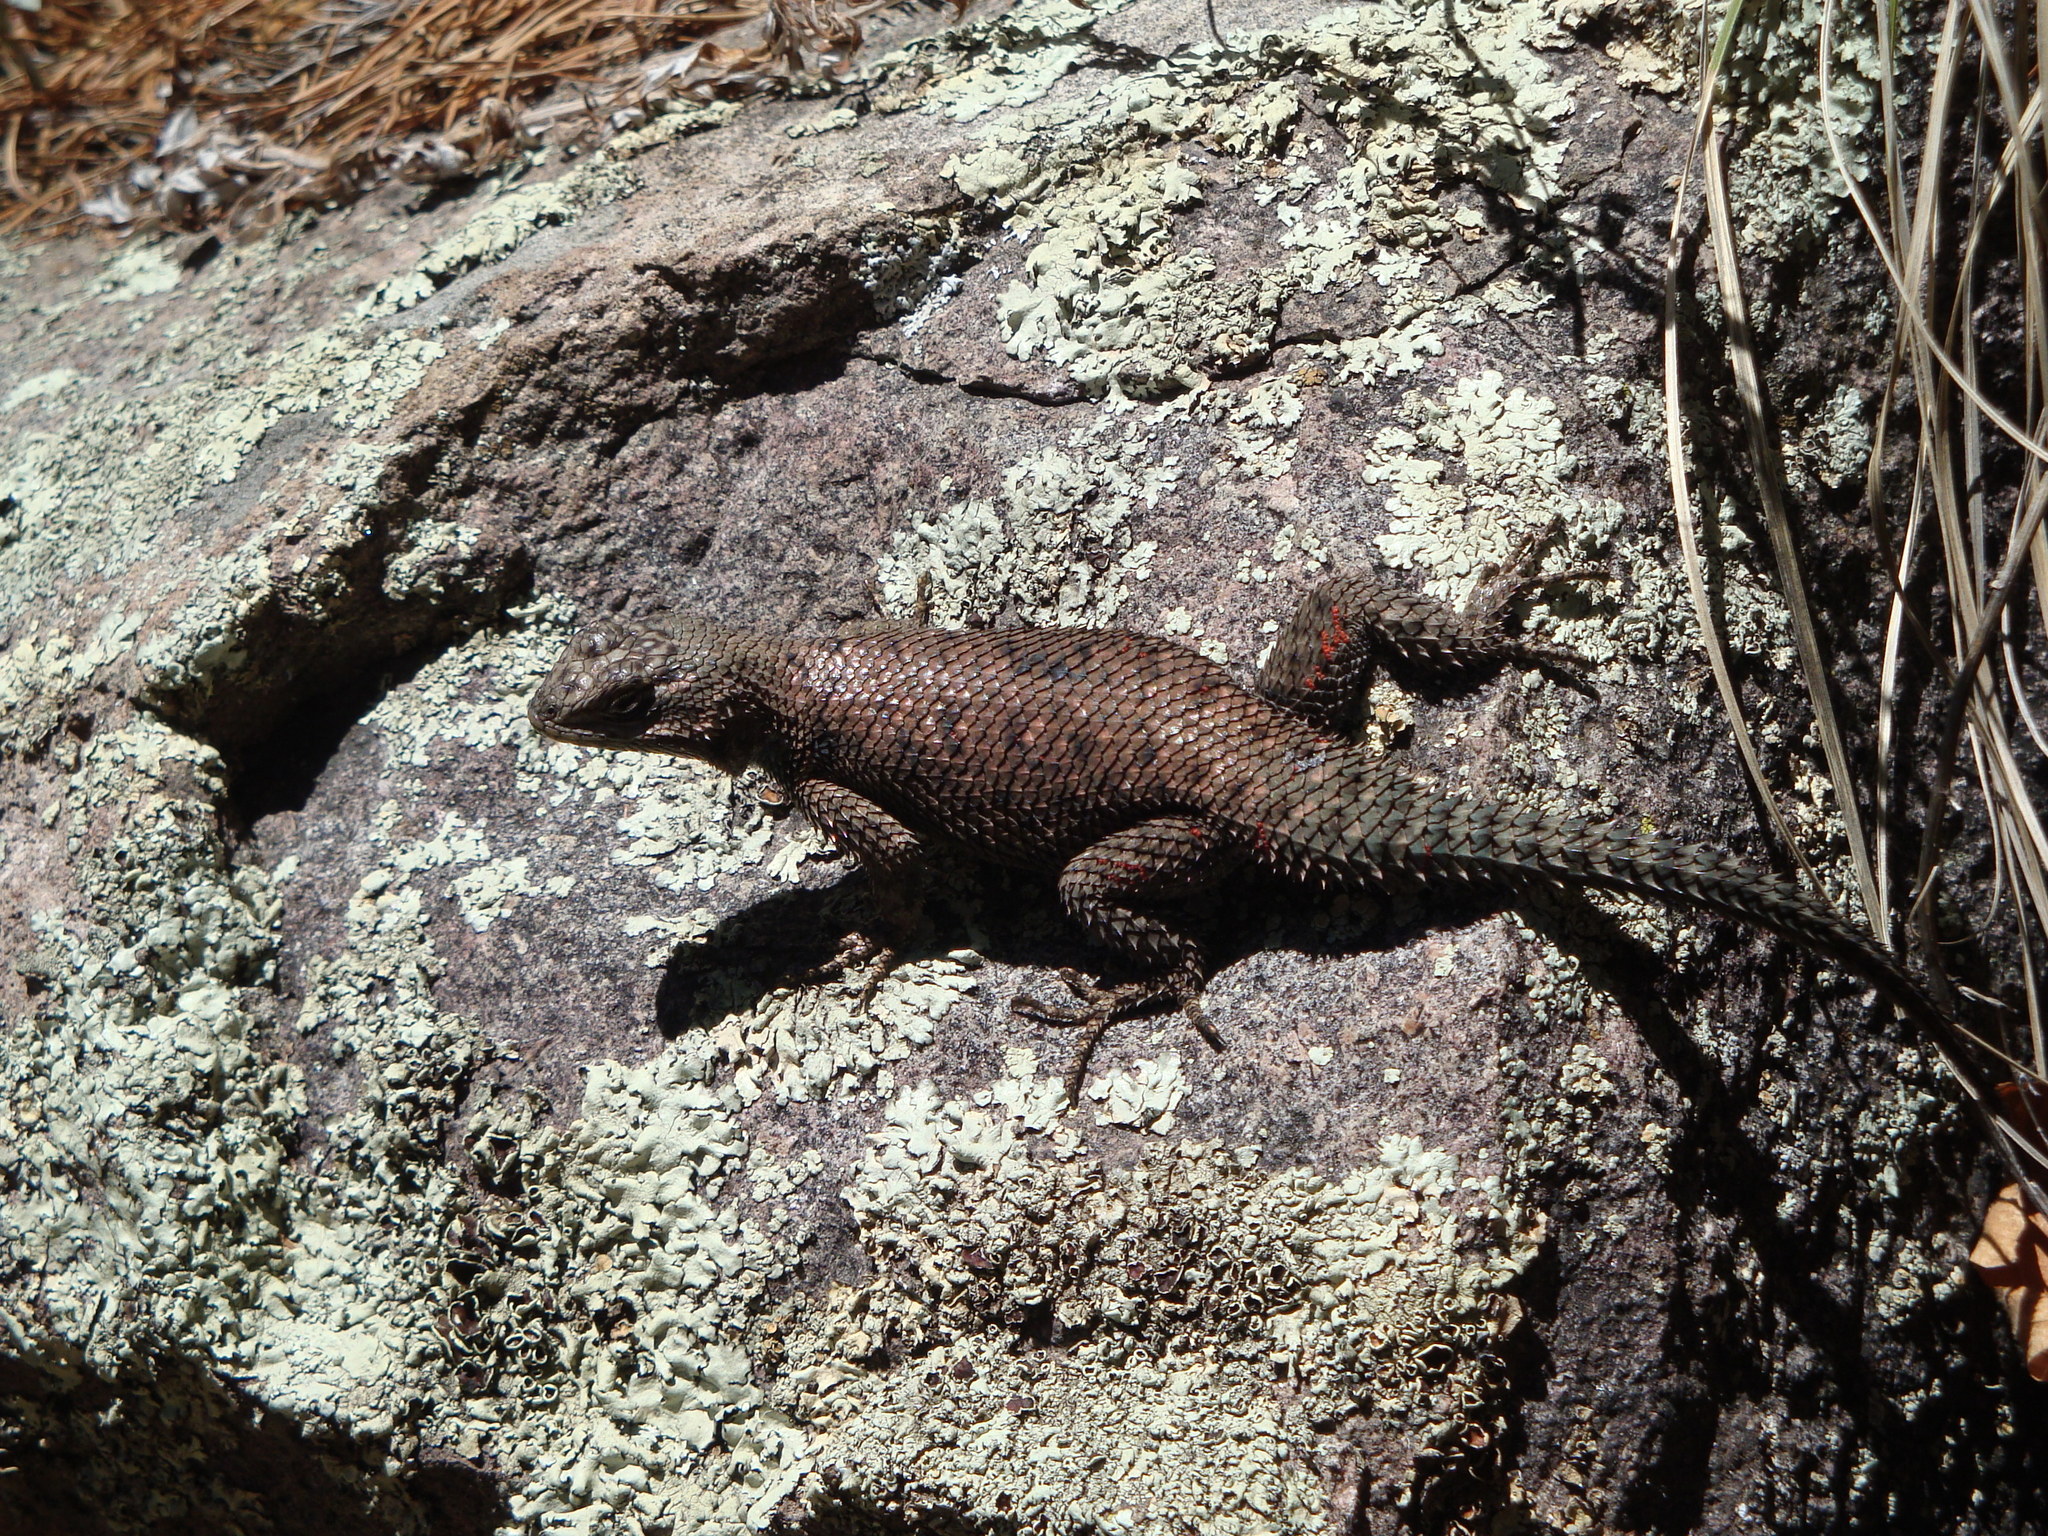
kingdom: Animalia
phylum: Chordata
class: Squamata
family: Phrynosomatidae
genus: Sceloporus
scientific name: Sceloporus jarrovii
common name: Yarrow's spiny lizard
